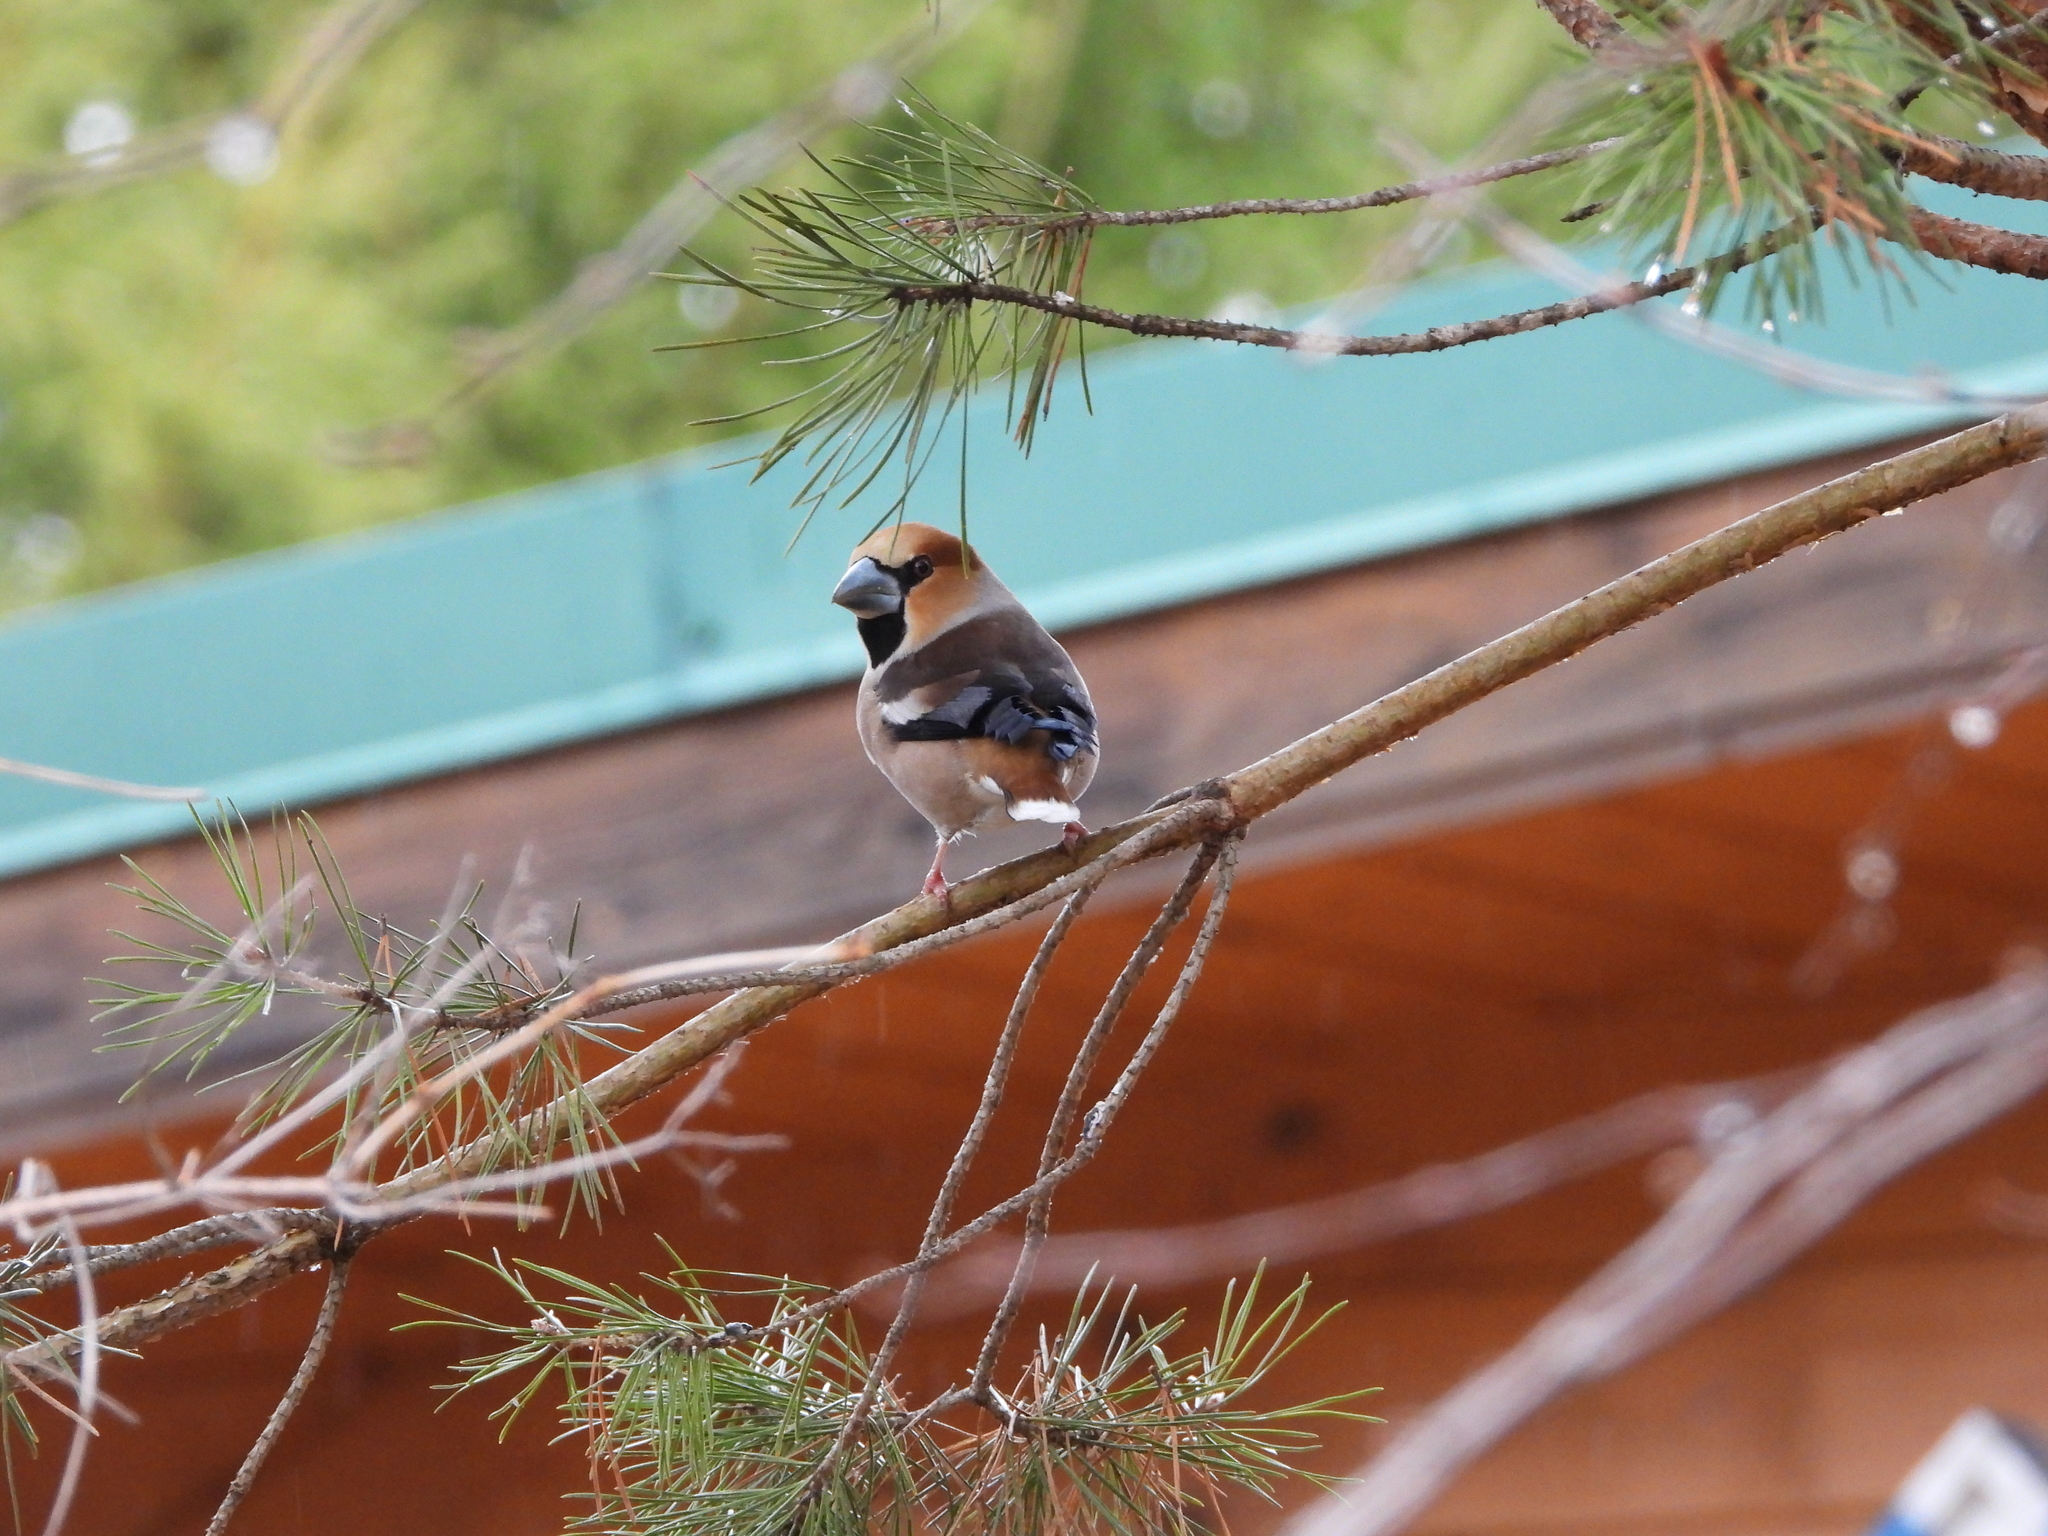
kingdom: Animalia
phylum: Chordata
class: Aves
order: Passeriformes
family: Fringillidae
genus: Coccothraustes
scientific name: Coccothraustes coccothraustes
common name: Hawfinch
